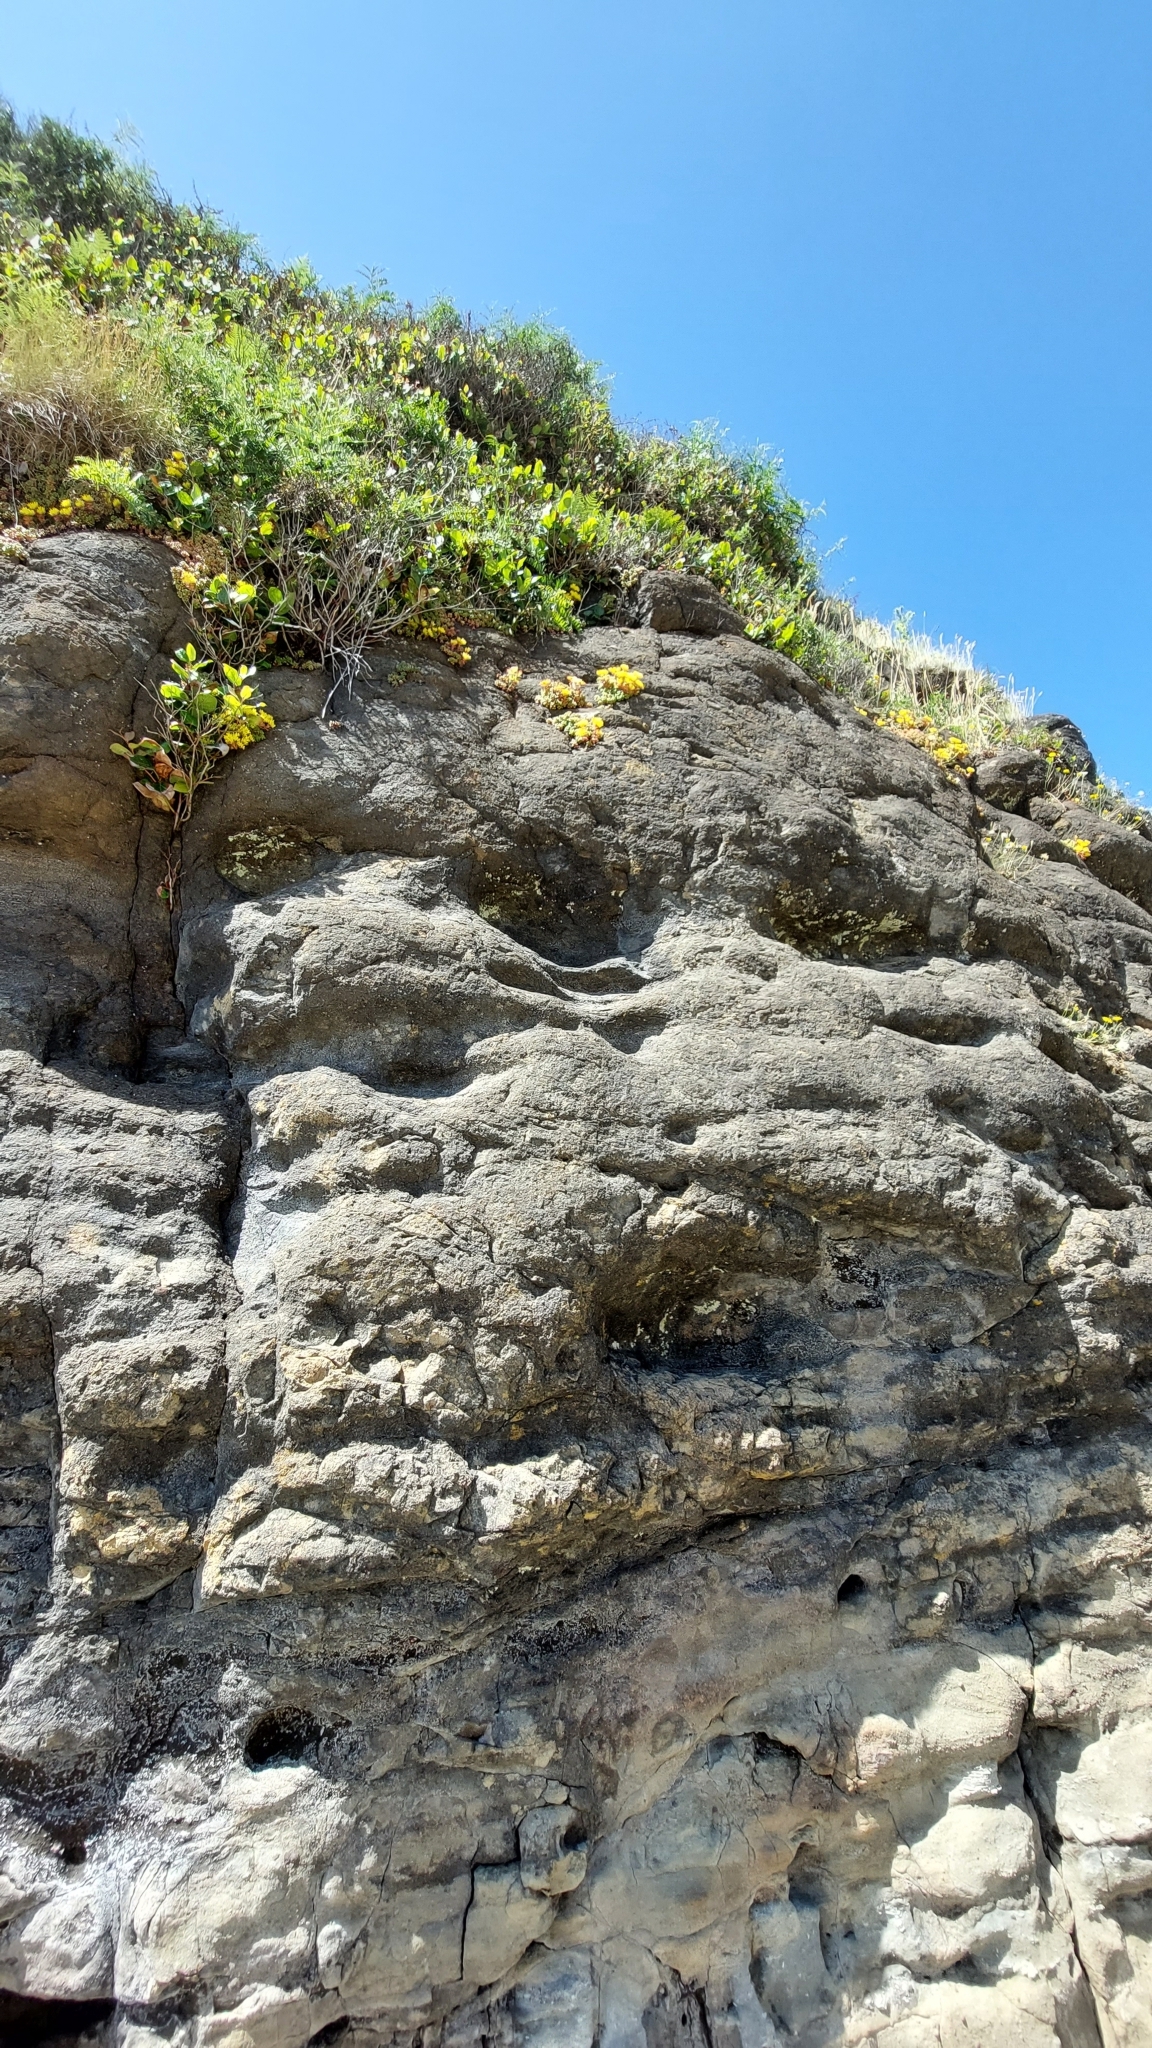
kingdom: Plantae
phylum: Tracheophyta
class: Magnoliopsida
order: Saxifragales
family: Crassulaceae
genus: Sedum
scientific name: Sedum oreganum
